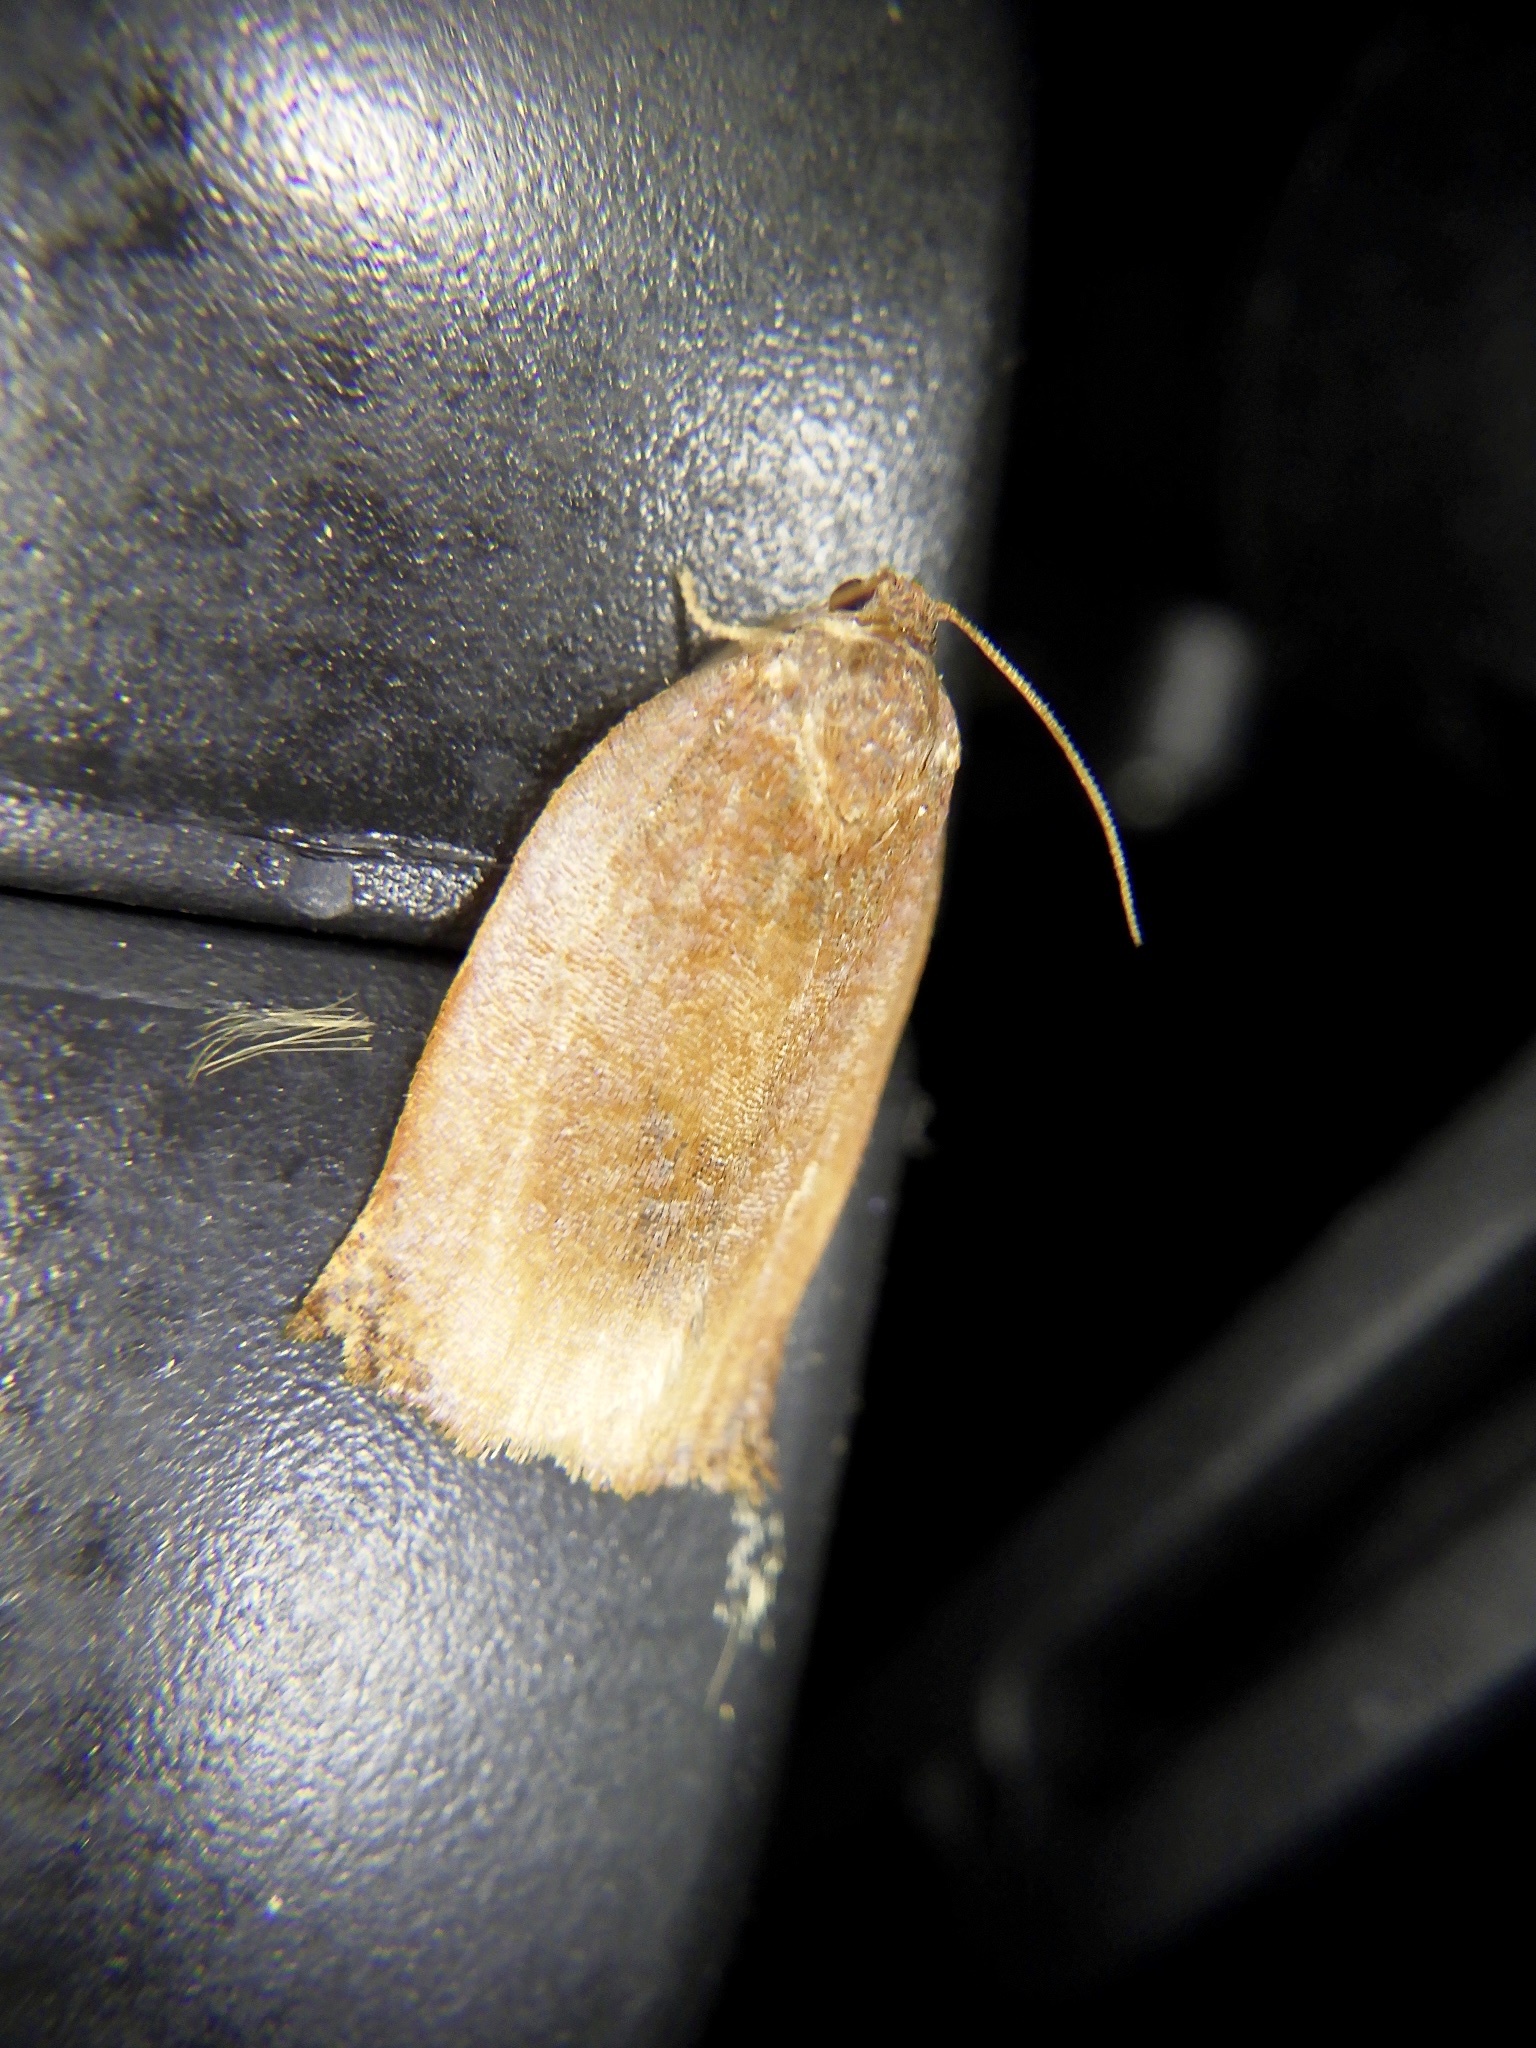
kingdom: Animalia
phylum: Arthropoda
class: Insecta
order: Lepidoptera
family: Tortricidae
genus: Archips
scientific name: Archips peratratus
